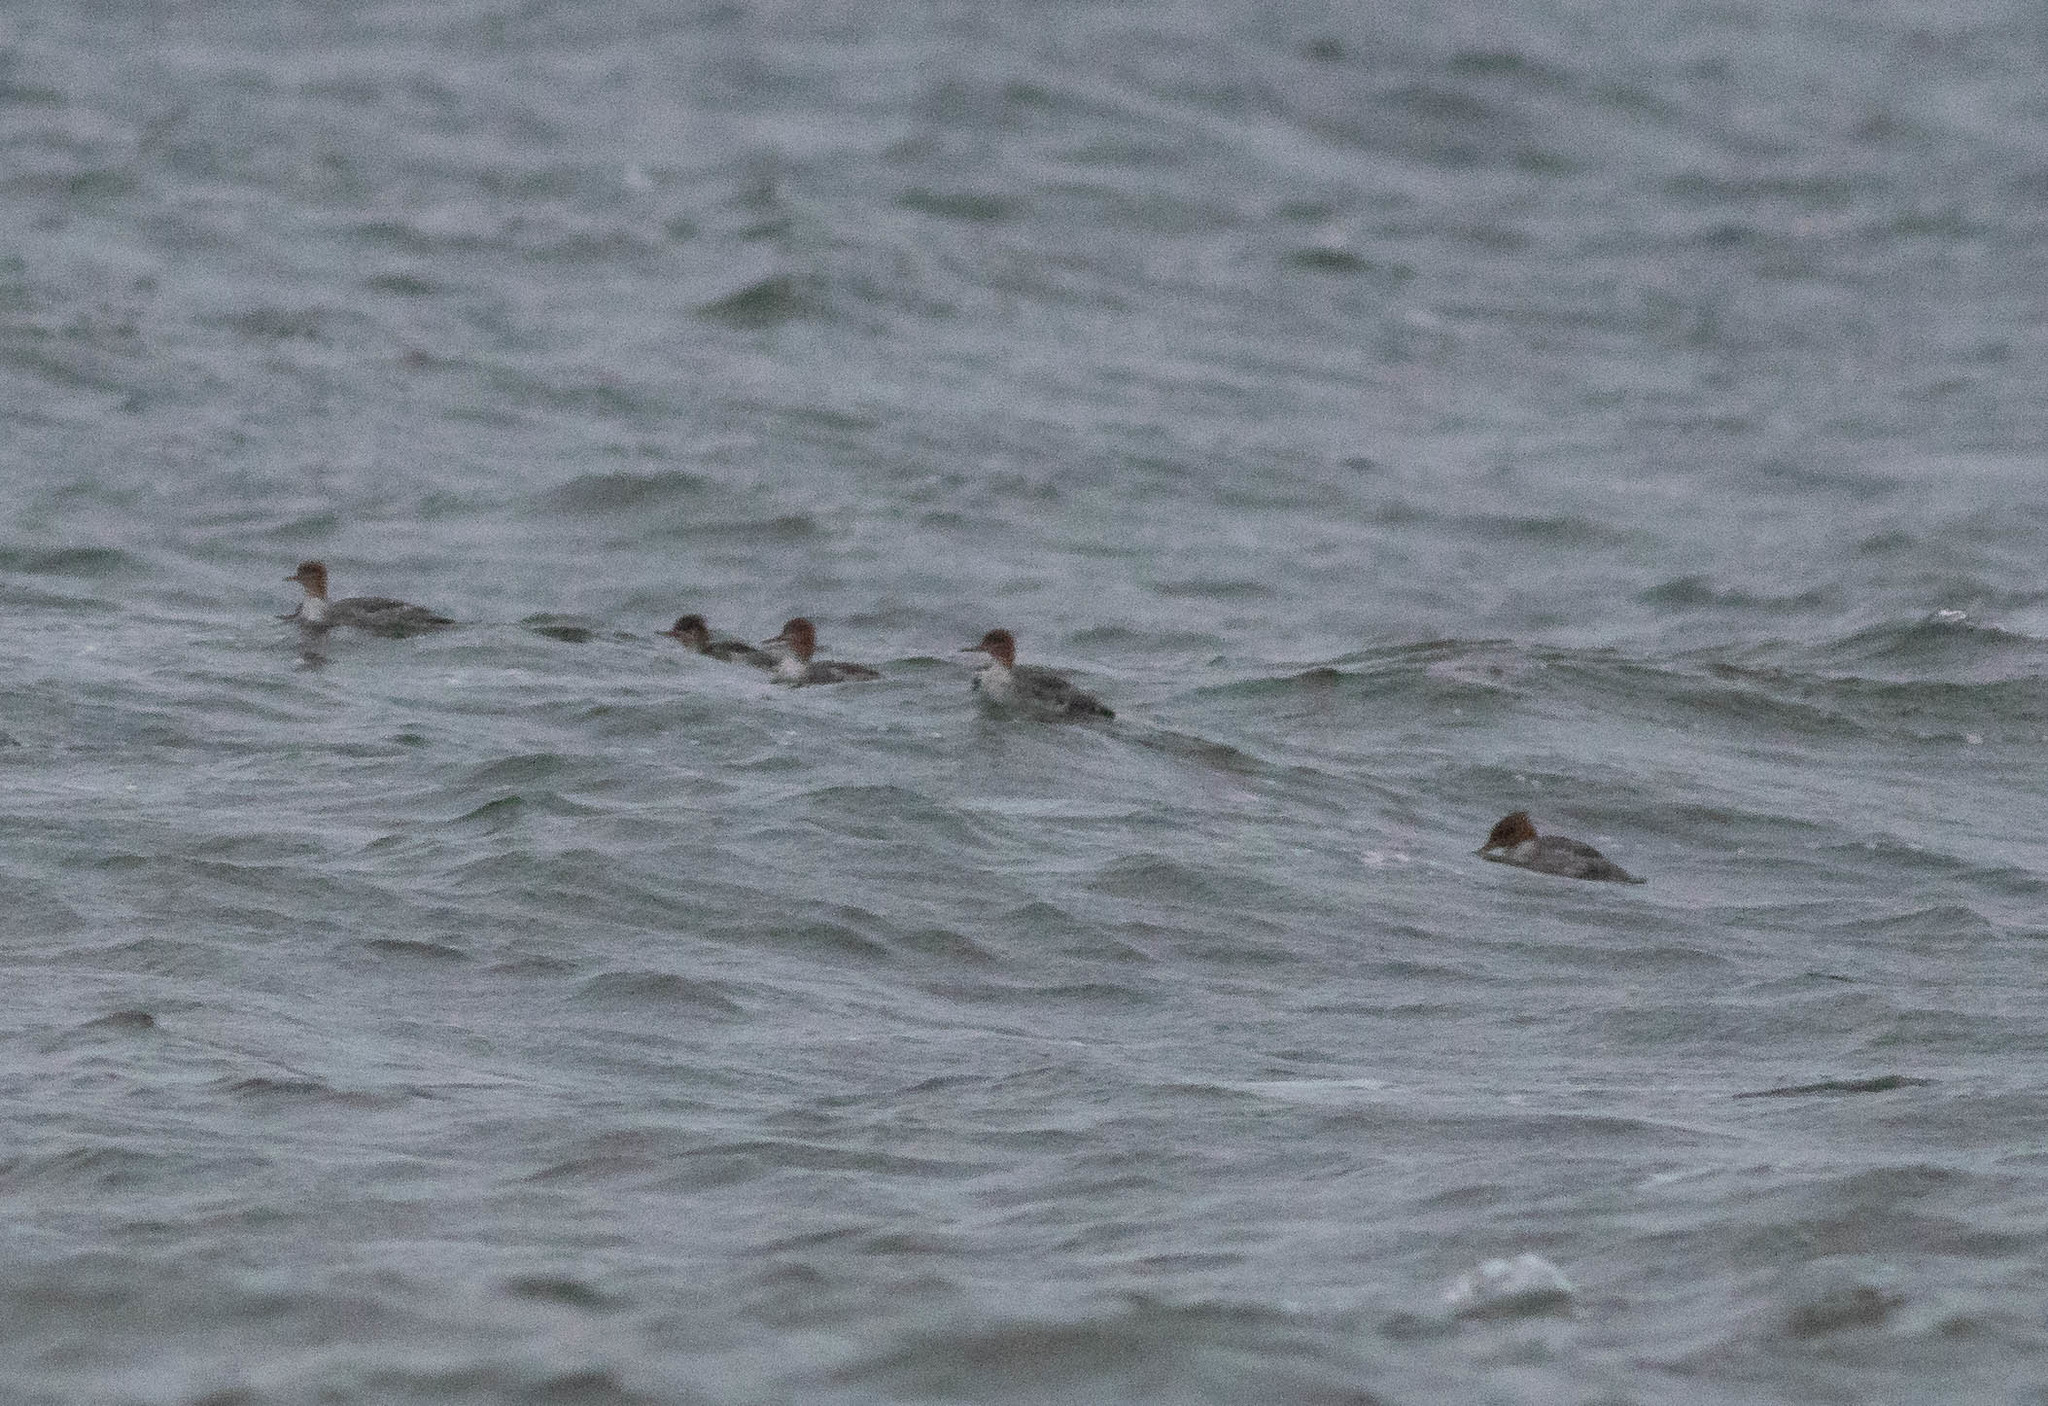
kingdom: Animalia
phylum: Chordata
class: Aves
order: Anseriformes
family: Anatidae
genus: Mergus
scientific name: Mergus serrator
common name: Red-breasted merganser
